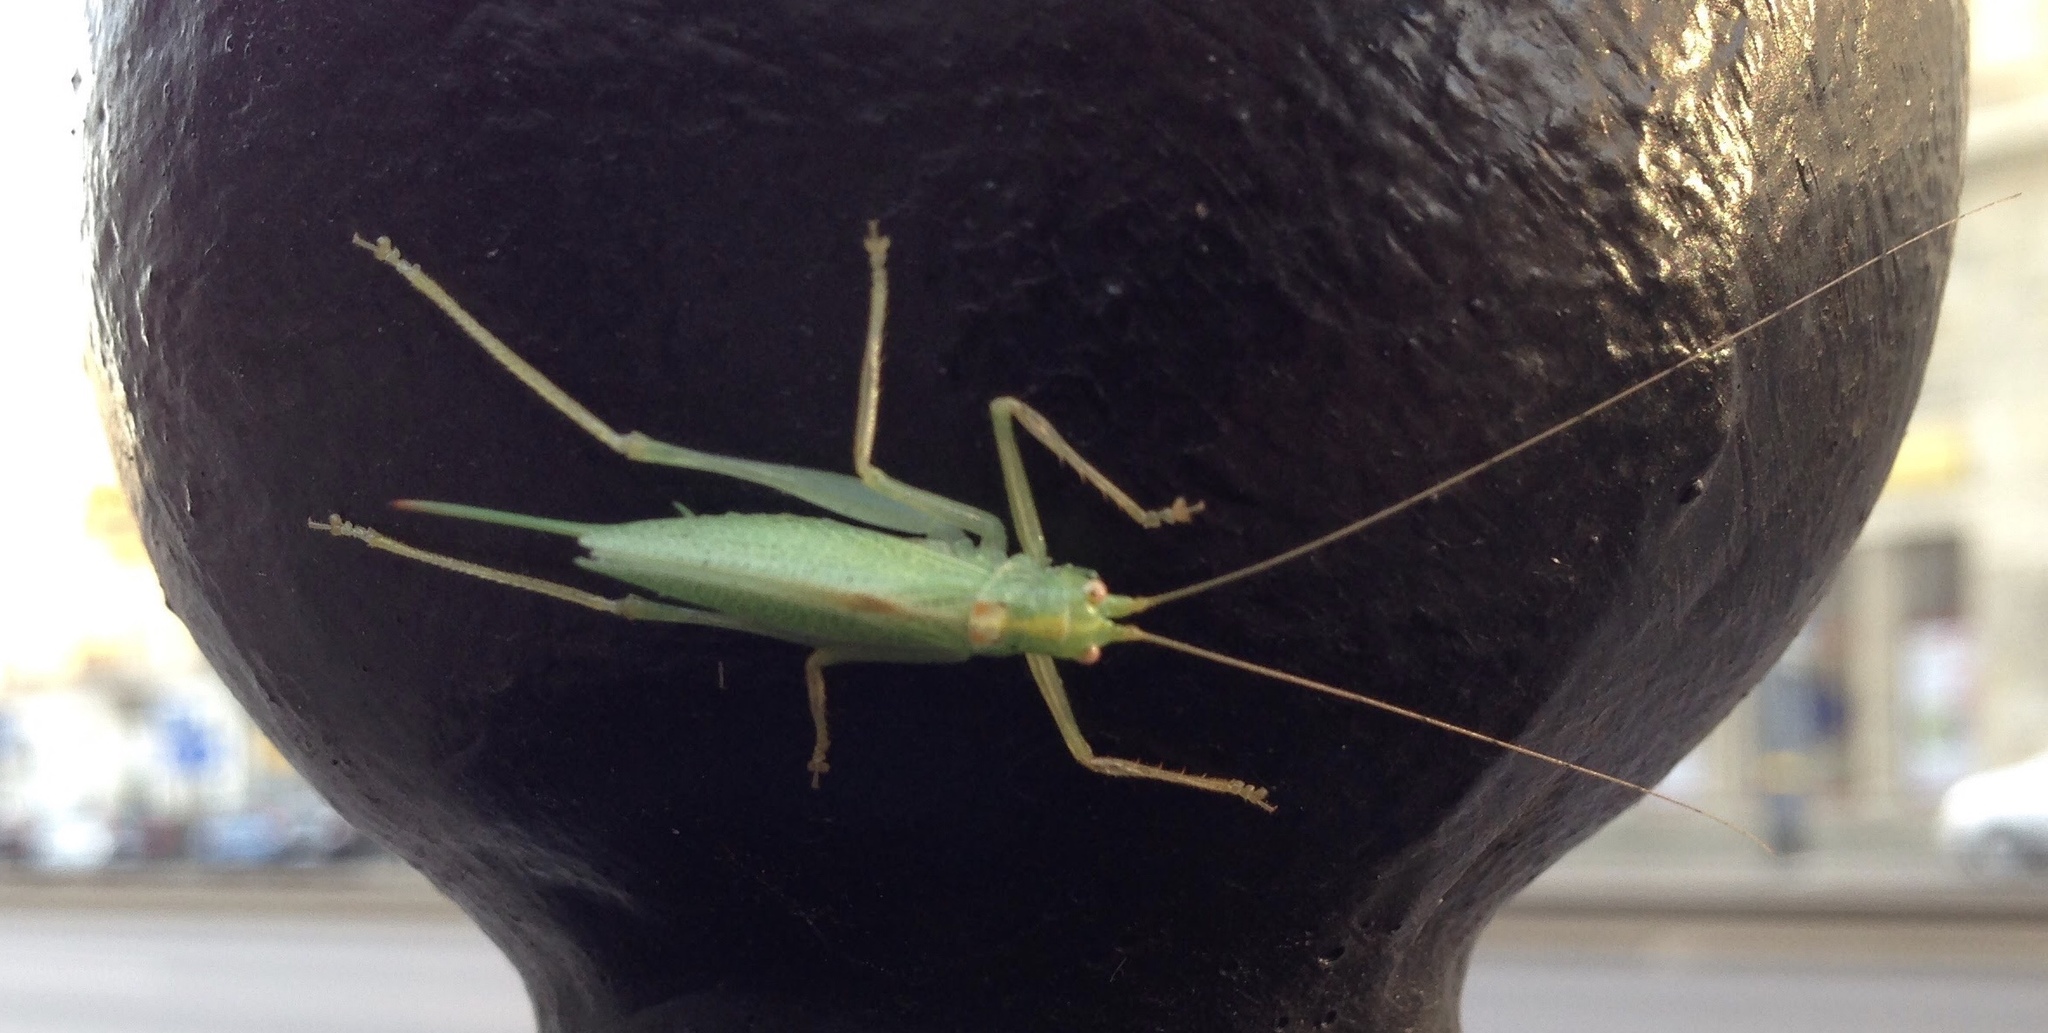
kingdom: Animalia
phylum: Arthropoda
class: Insecta
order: Orthoptera
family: Tettigoniidae
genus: Meconema
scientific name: Meconema thalassinum
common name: Oak bush-cricket
